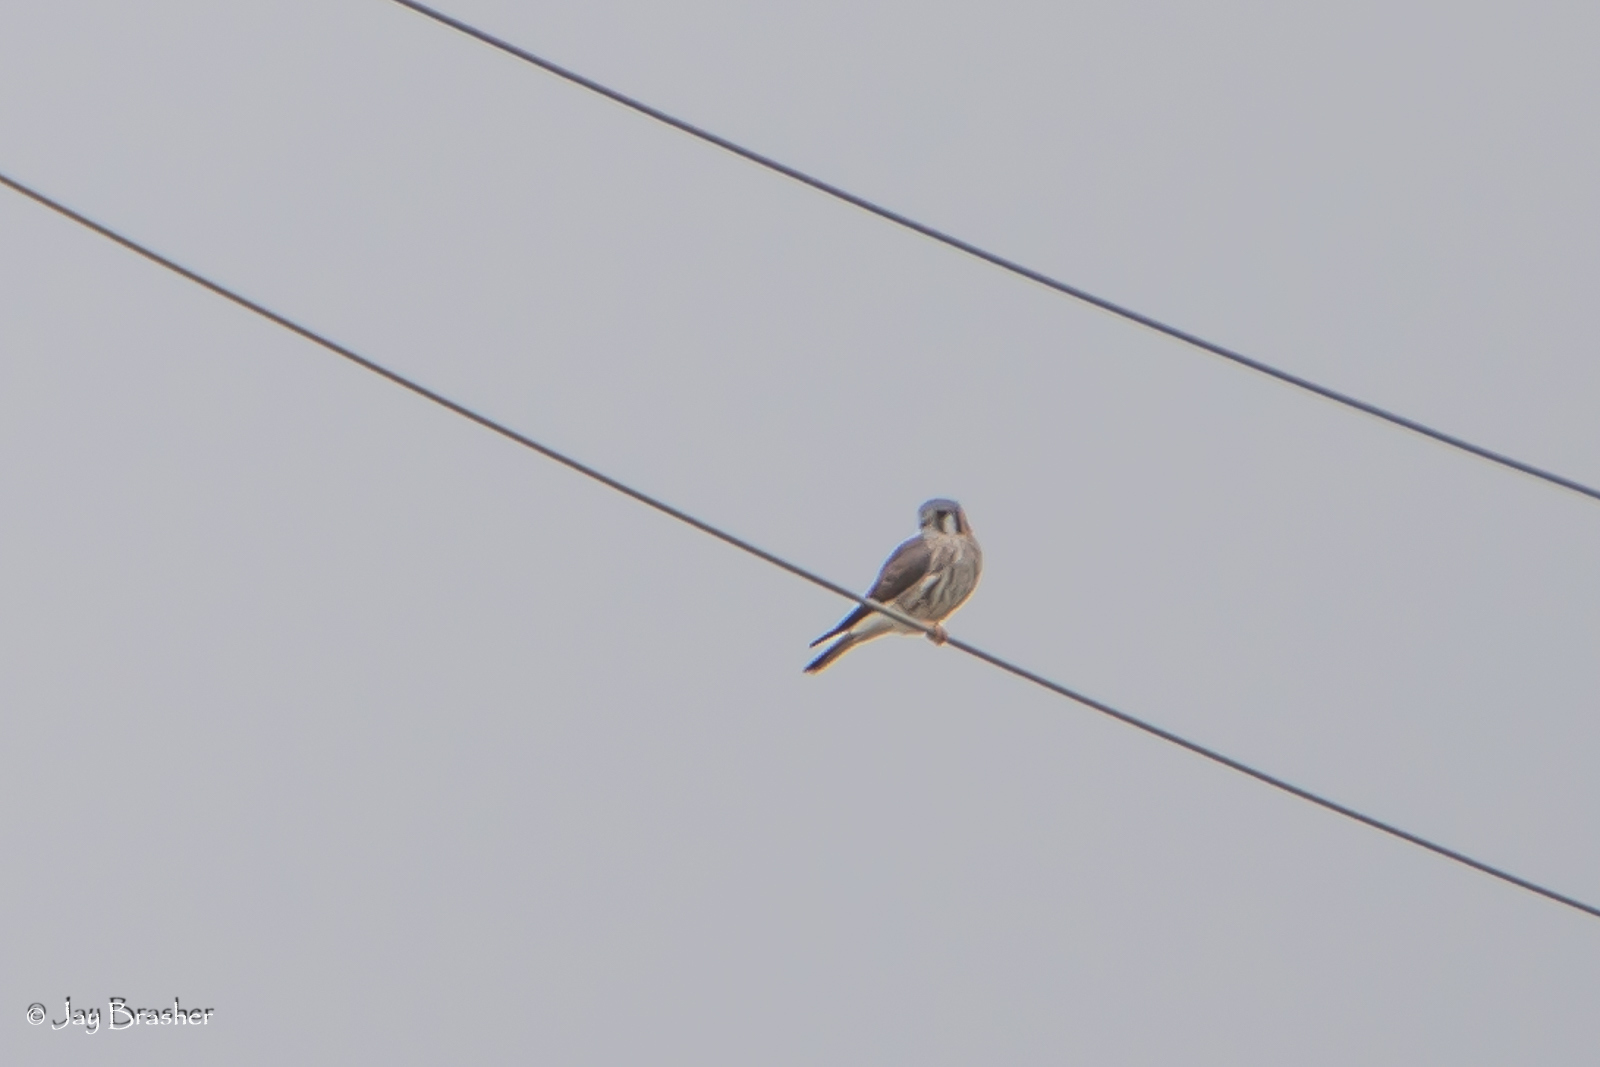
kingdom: Animalia
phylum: Chordata
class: Aves
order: Falconiformes
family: Falconidae
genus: Falco
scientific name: Falco sparverius
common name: American kestrel
